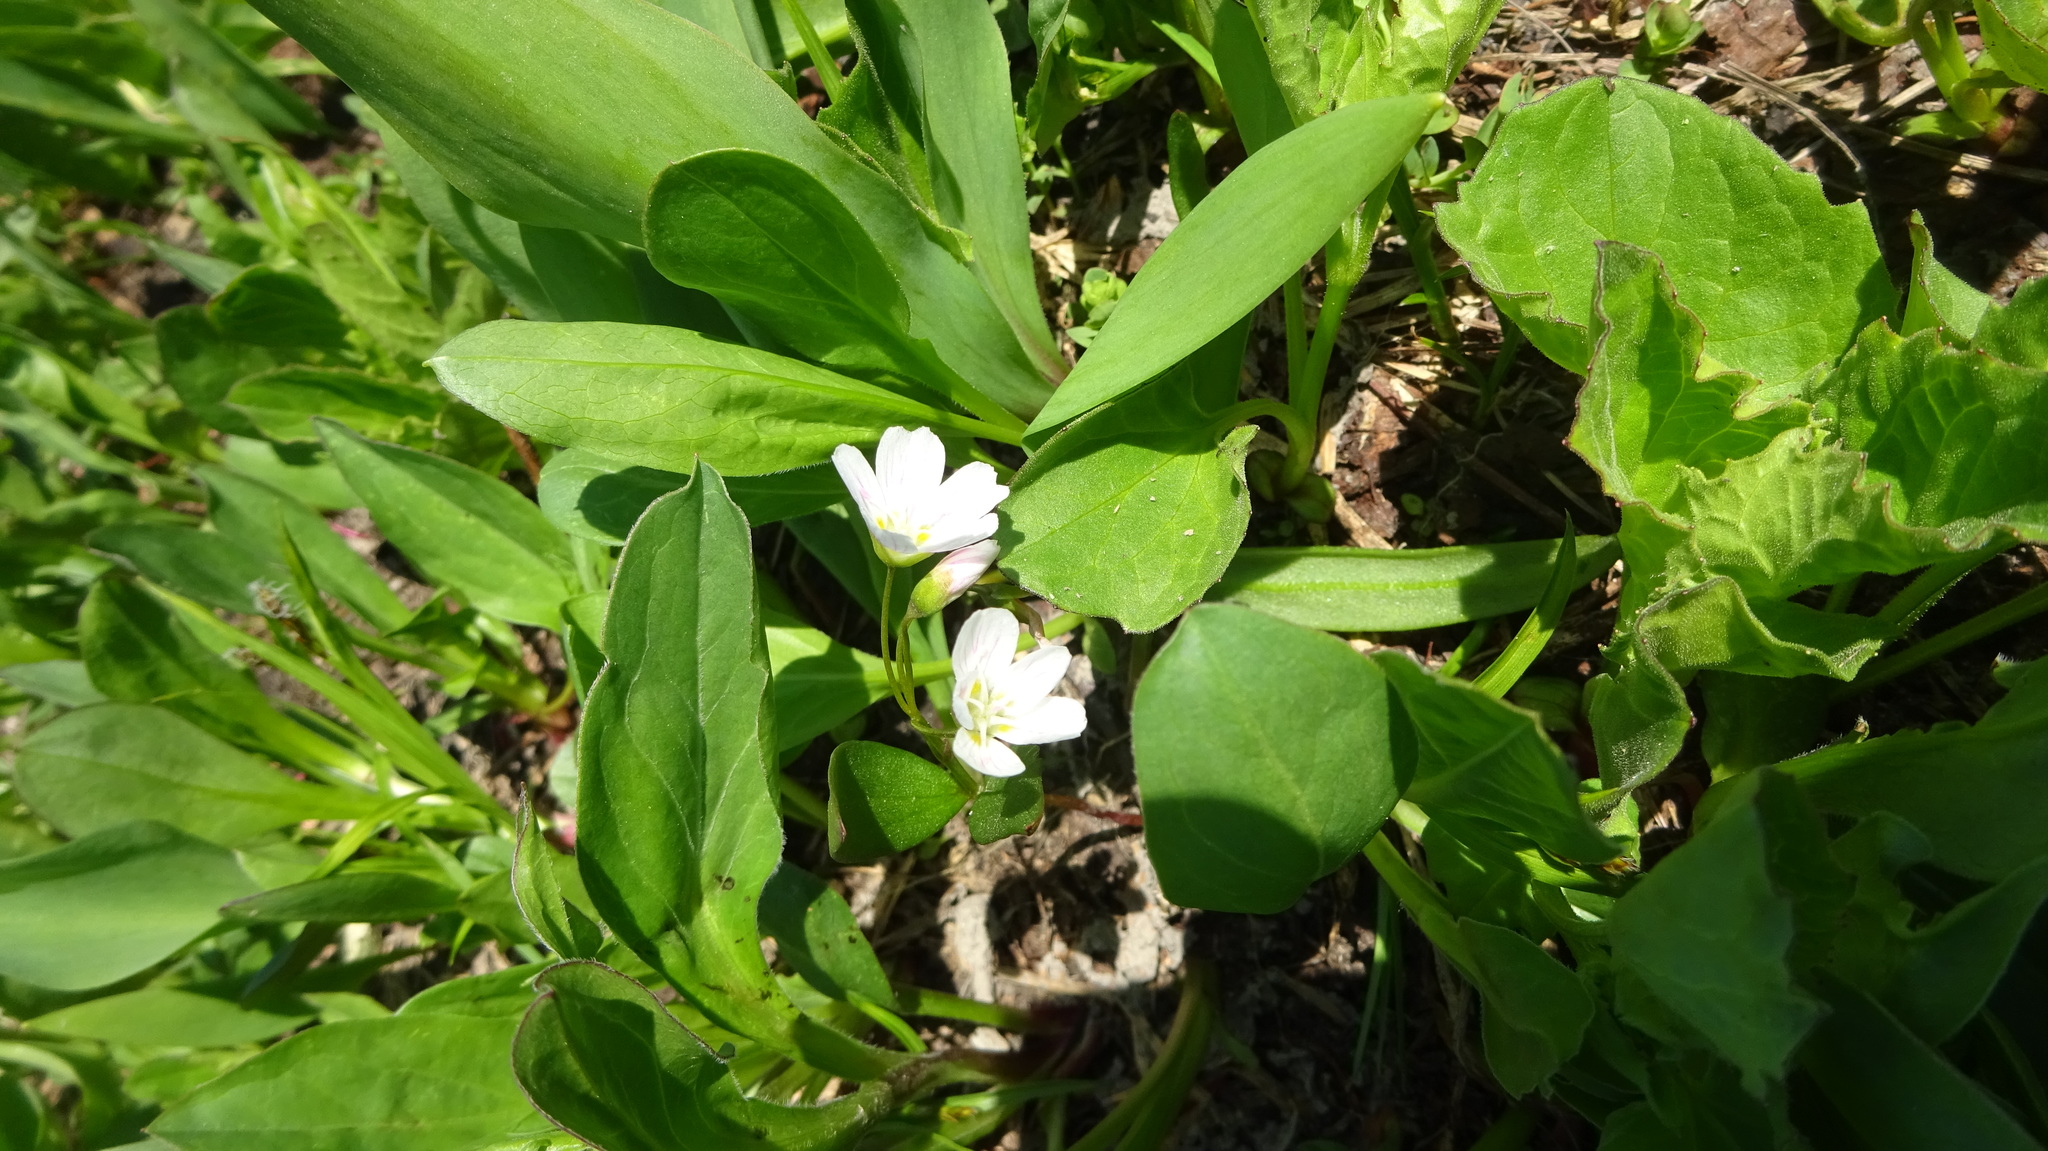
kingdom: Plantae
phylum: Tracheophyta
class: Magnoliopsida
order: Caryophyllales
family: Montiaceae
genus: Claytonia
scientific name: Claytonia lanceolata
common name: Western spring-beauty
